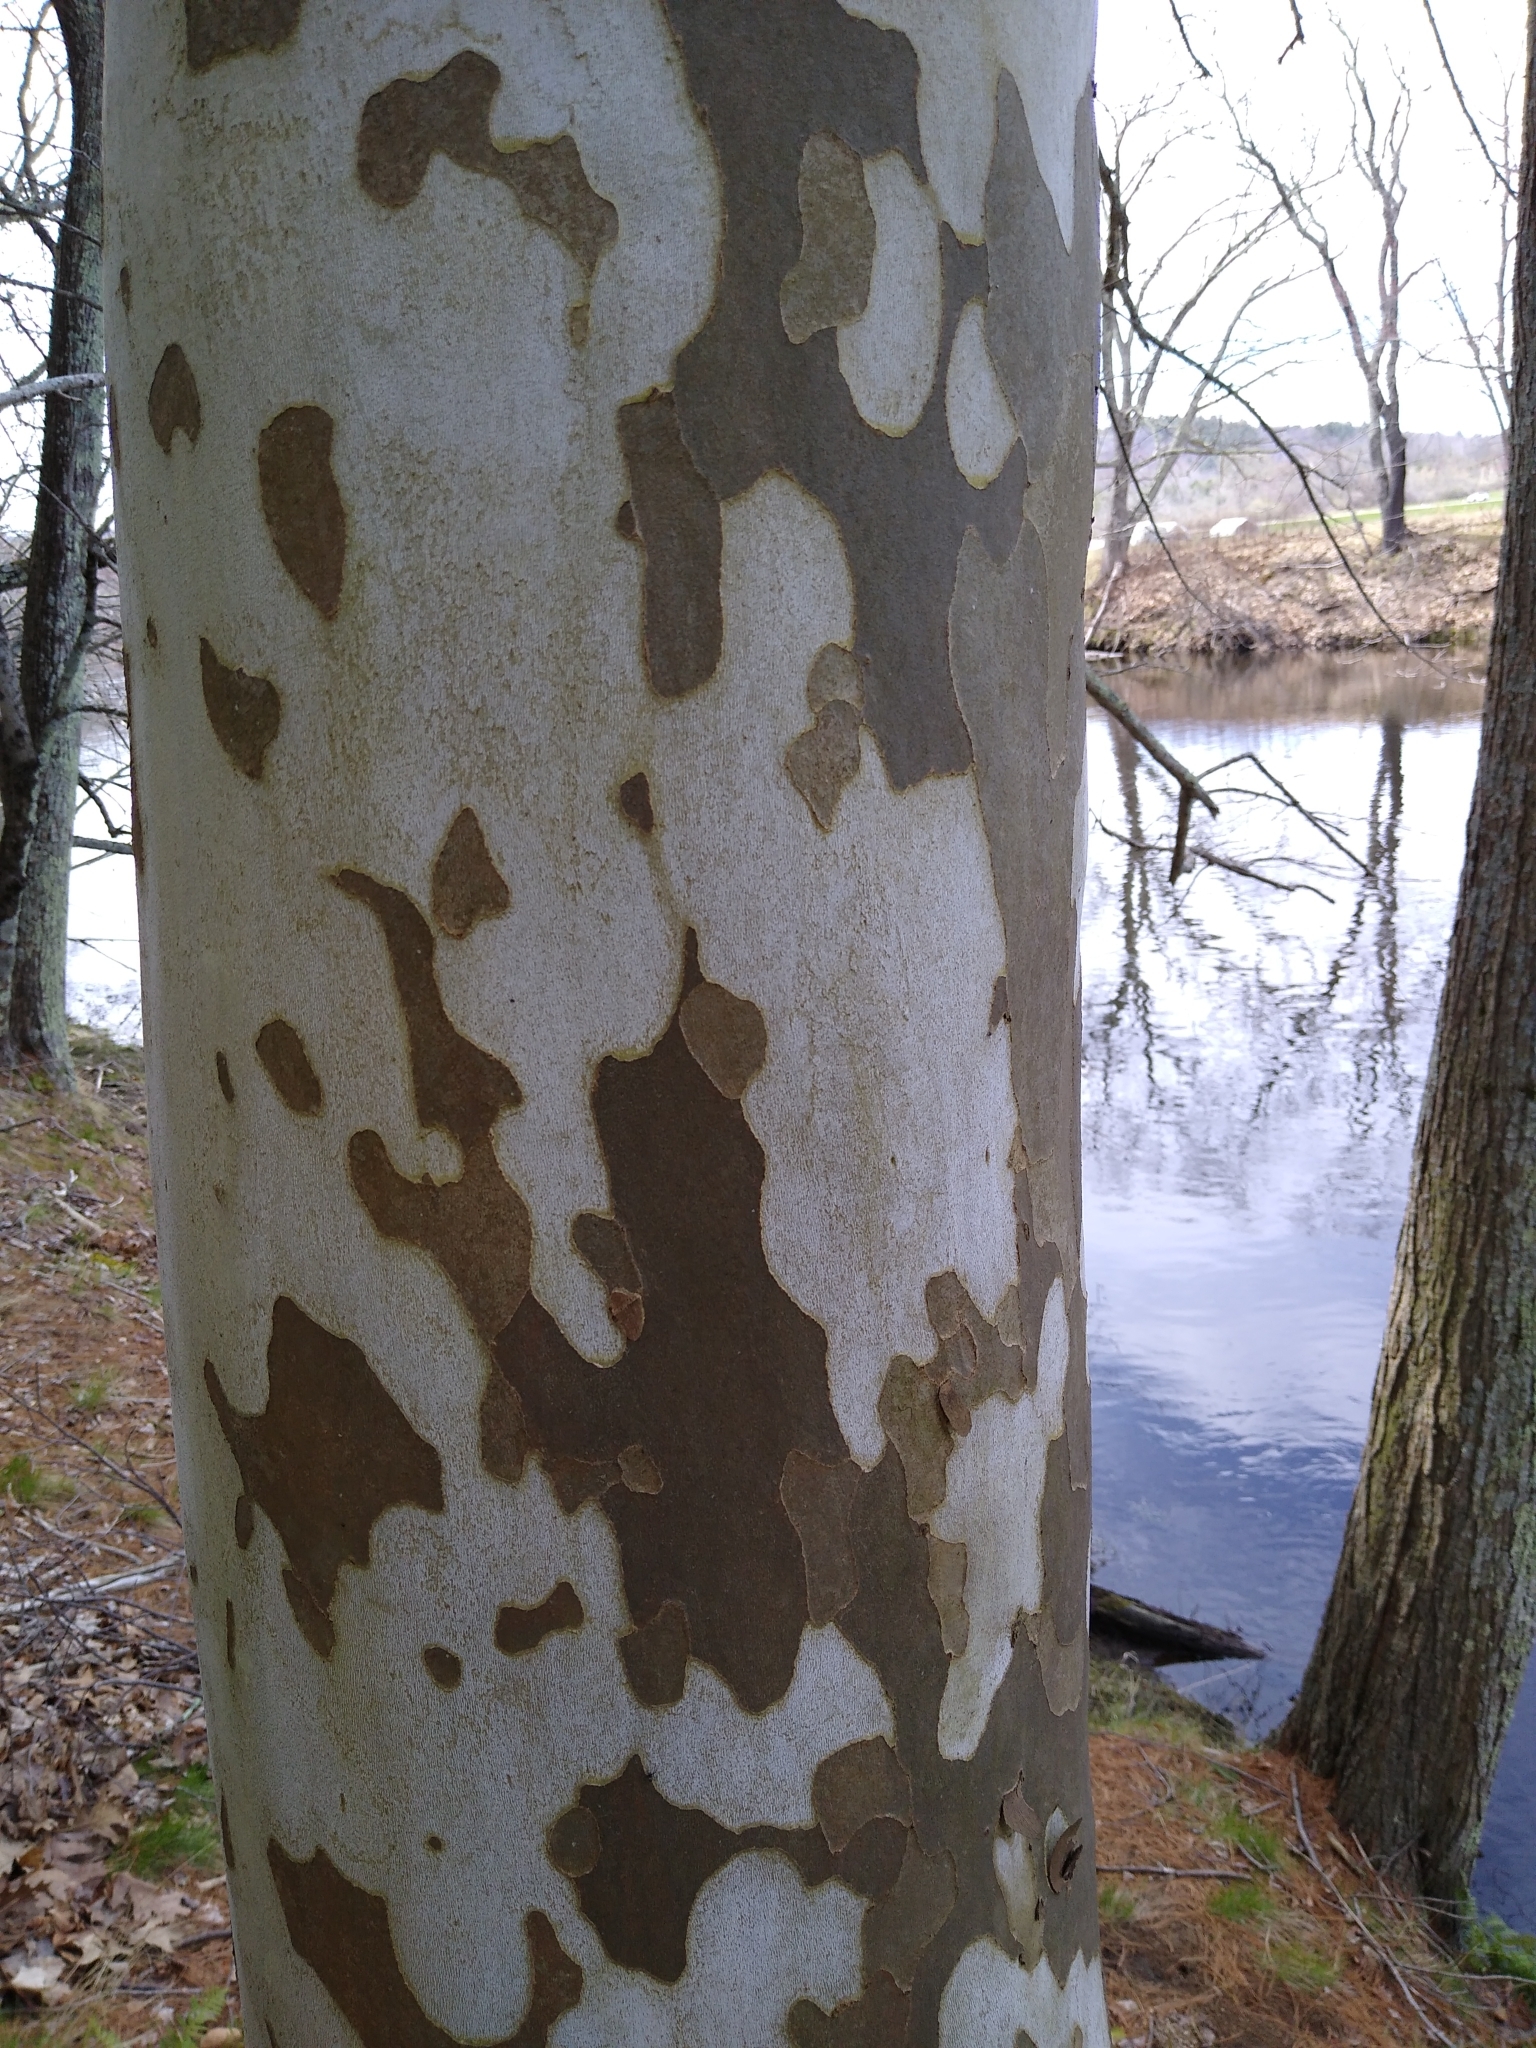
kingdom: Plantae
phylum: Tracheophyta
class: Magnoliopsida
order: Proteales
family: Platanaceae
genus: Platanus
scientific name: Platanus occidentalis
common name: American sycamore
